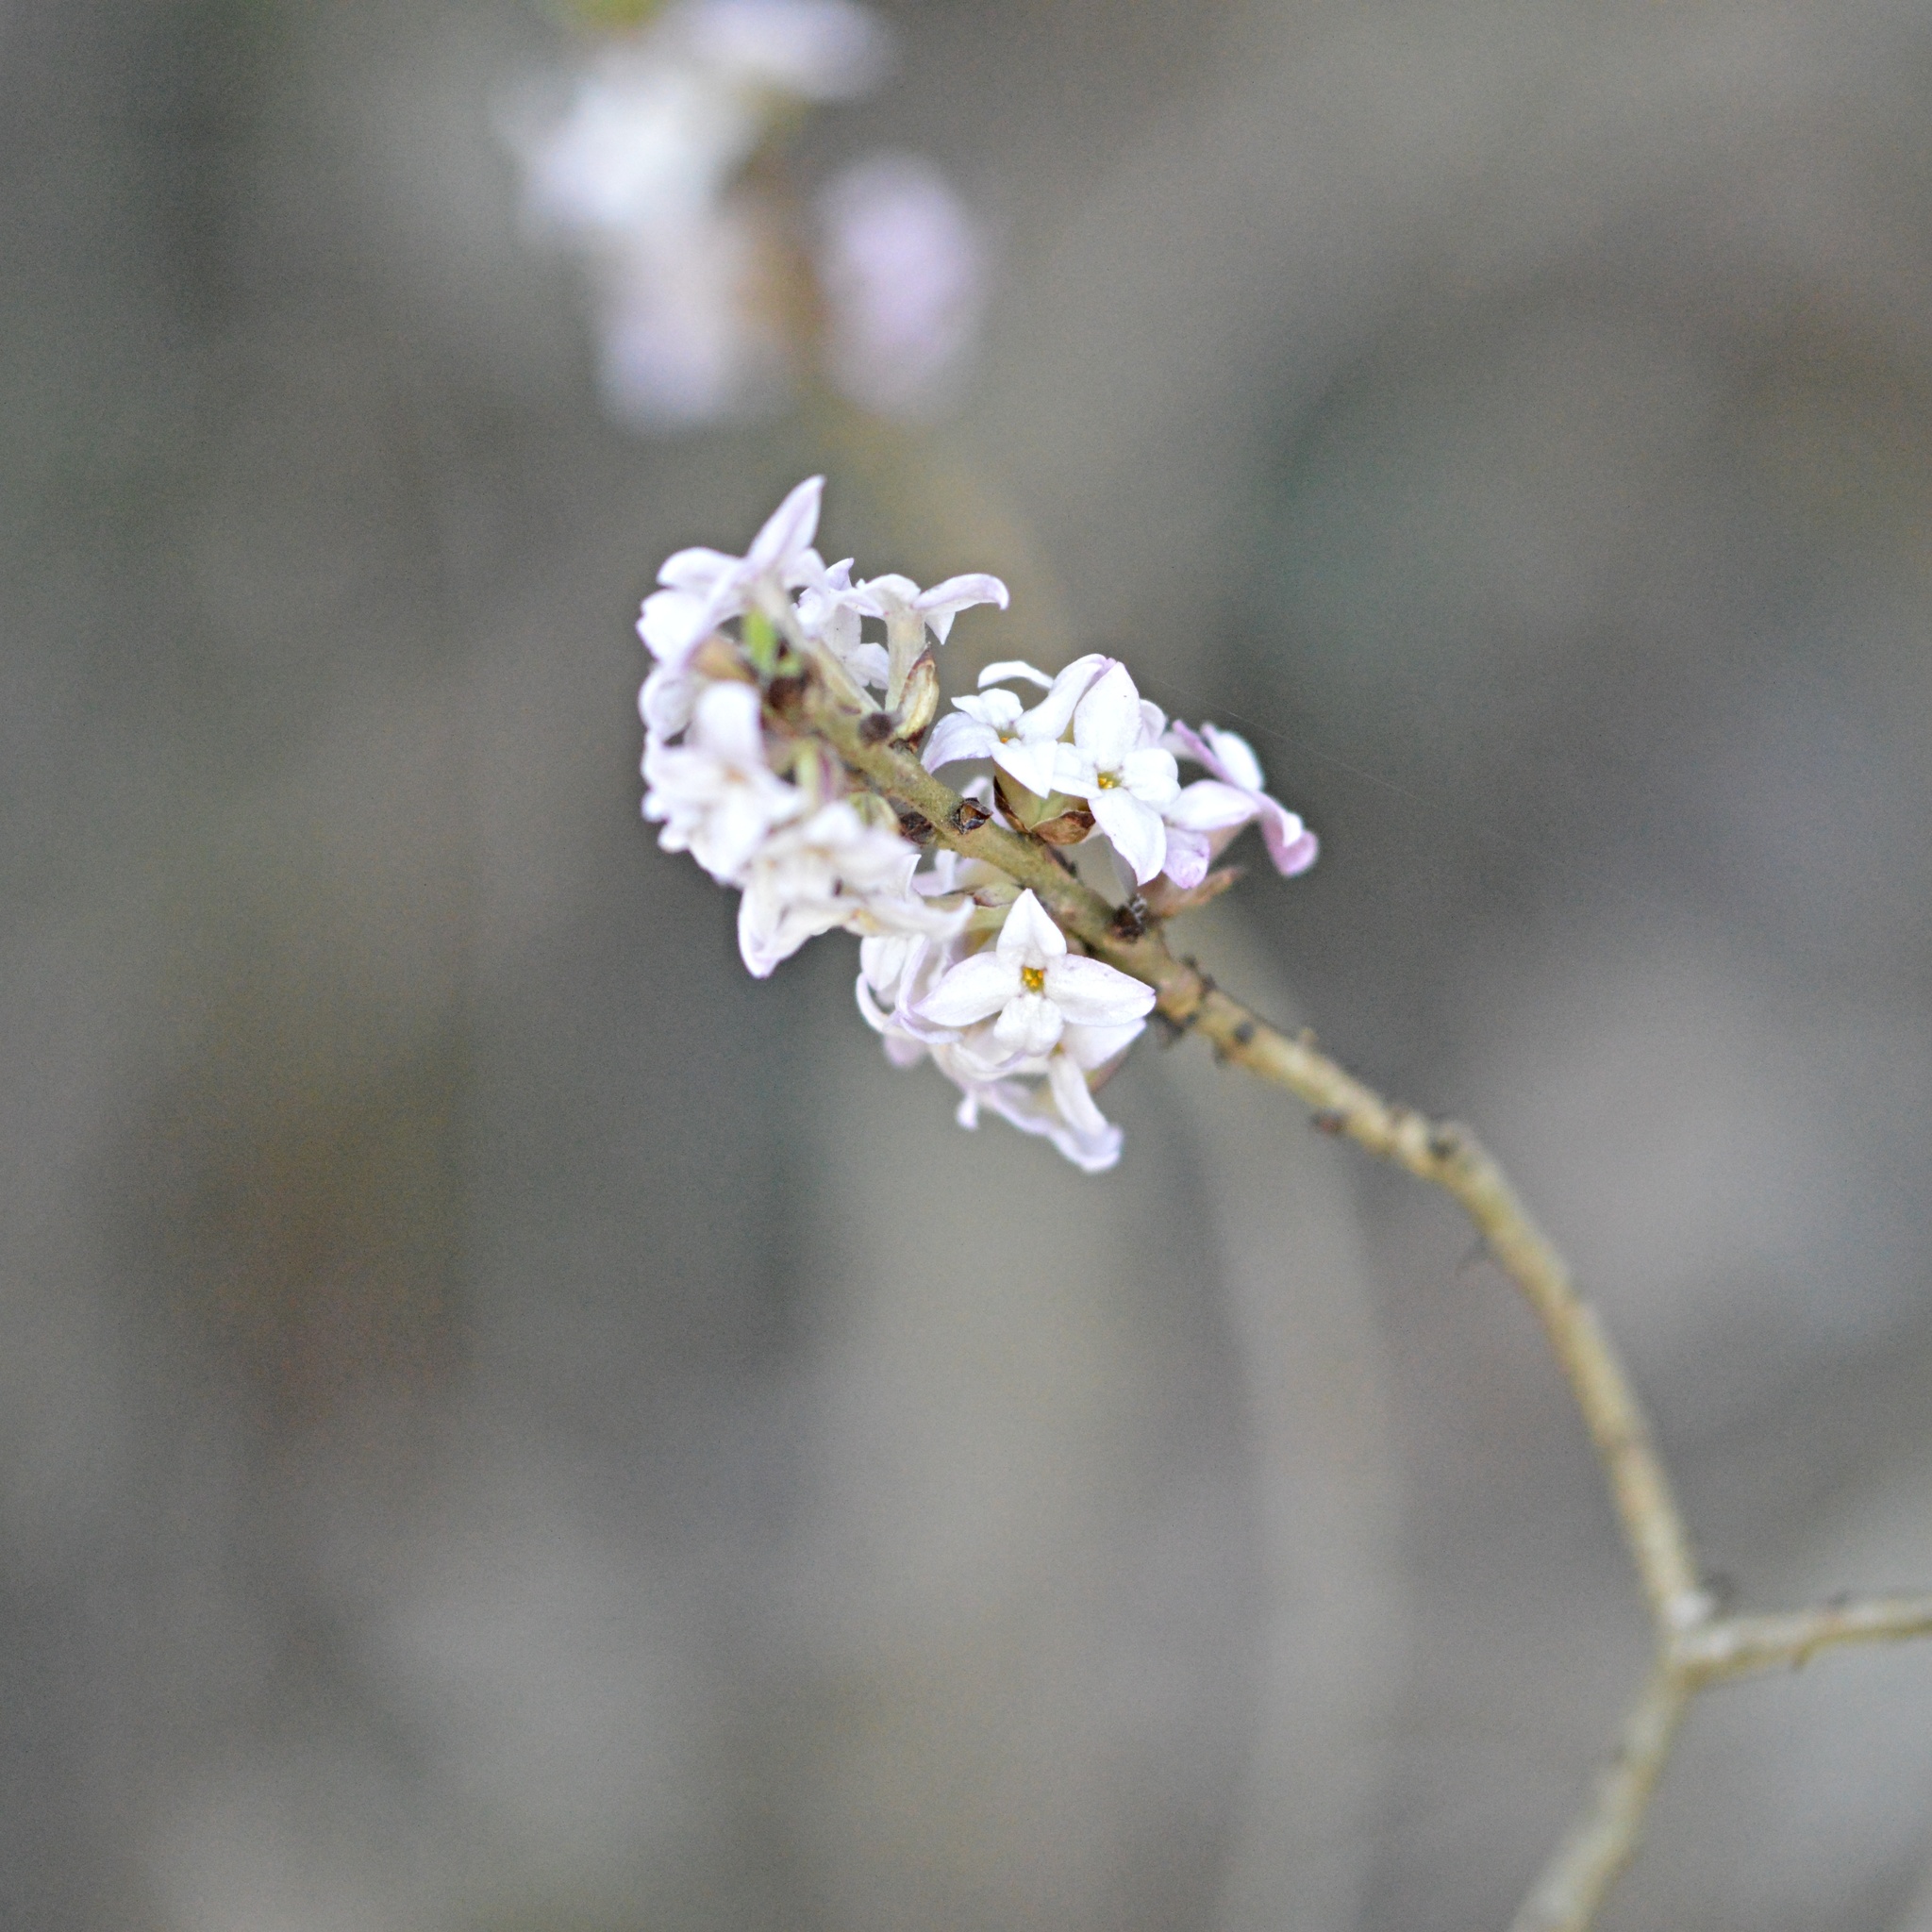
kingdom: Plantae
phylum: Tracheophyta
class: Magnoliopsida
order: Malvales
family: Thymelaeaceae
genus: Daphne
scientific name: Daphne mezereum
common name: Mezereon
